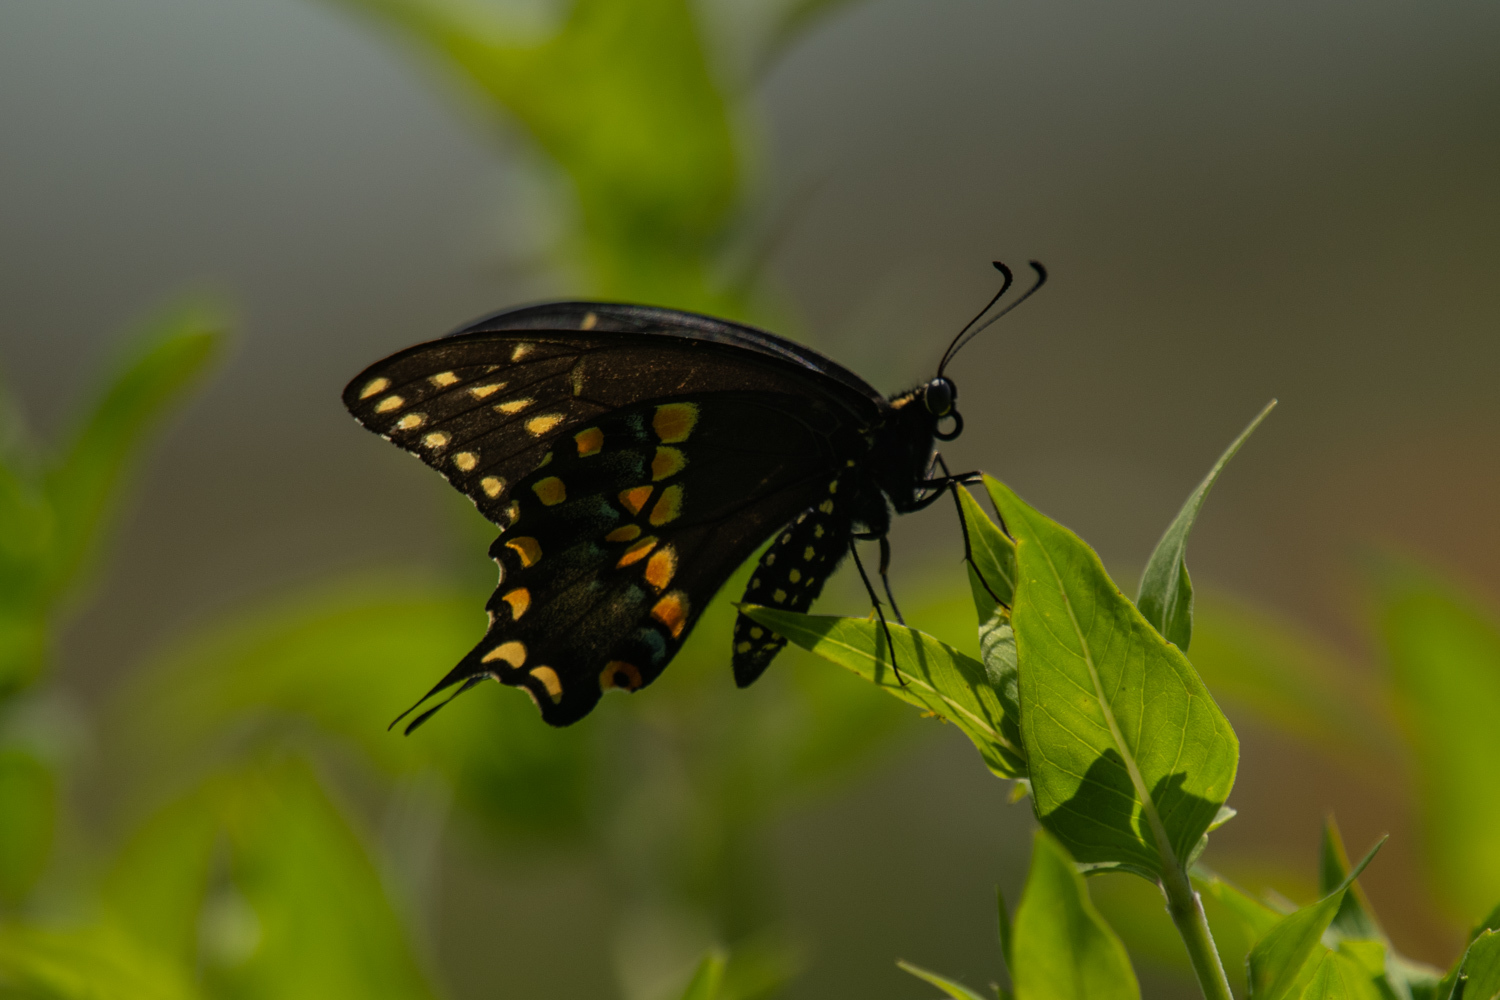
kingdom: Animalia
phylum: Arthropoda
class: Insecta
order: Lepidoptera
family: Papilionidae
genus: Papilio
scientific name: Papilio polyxenes
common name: Black swallowtail
